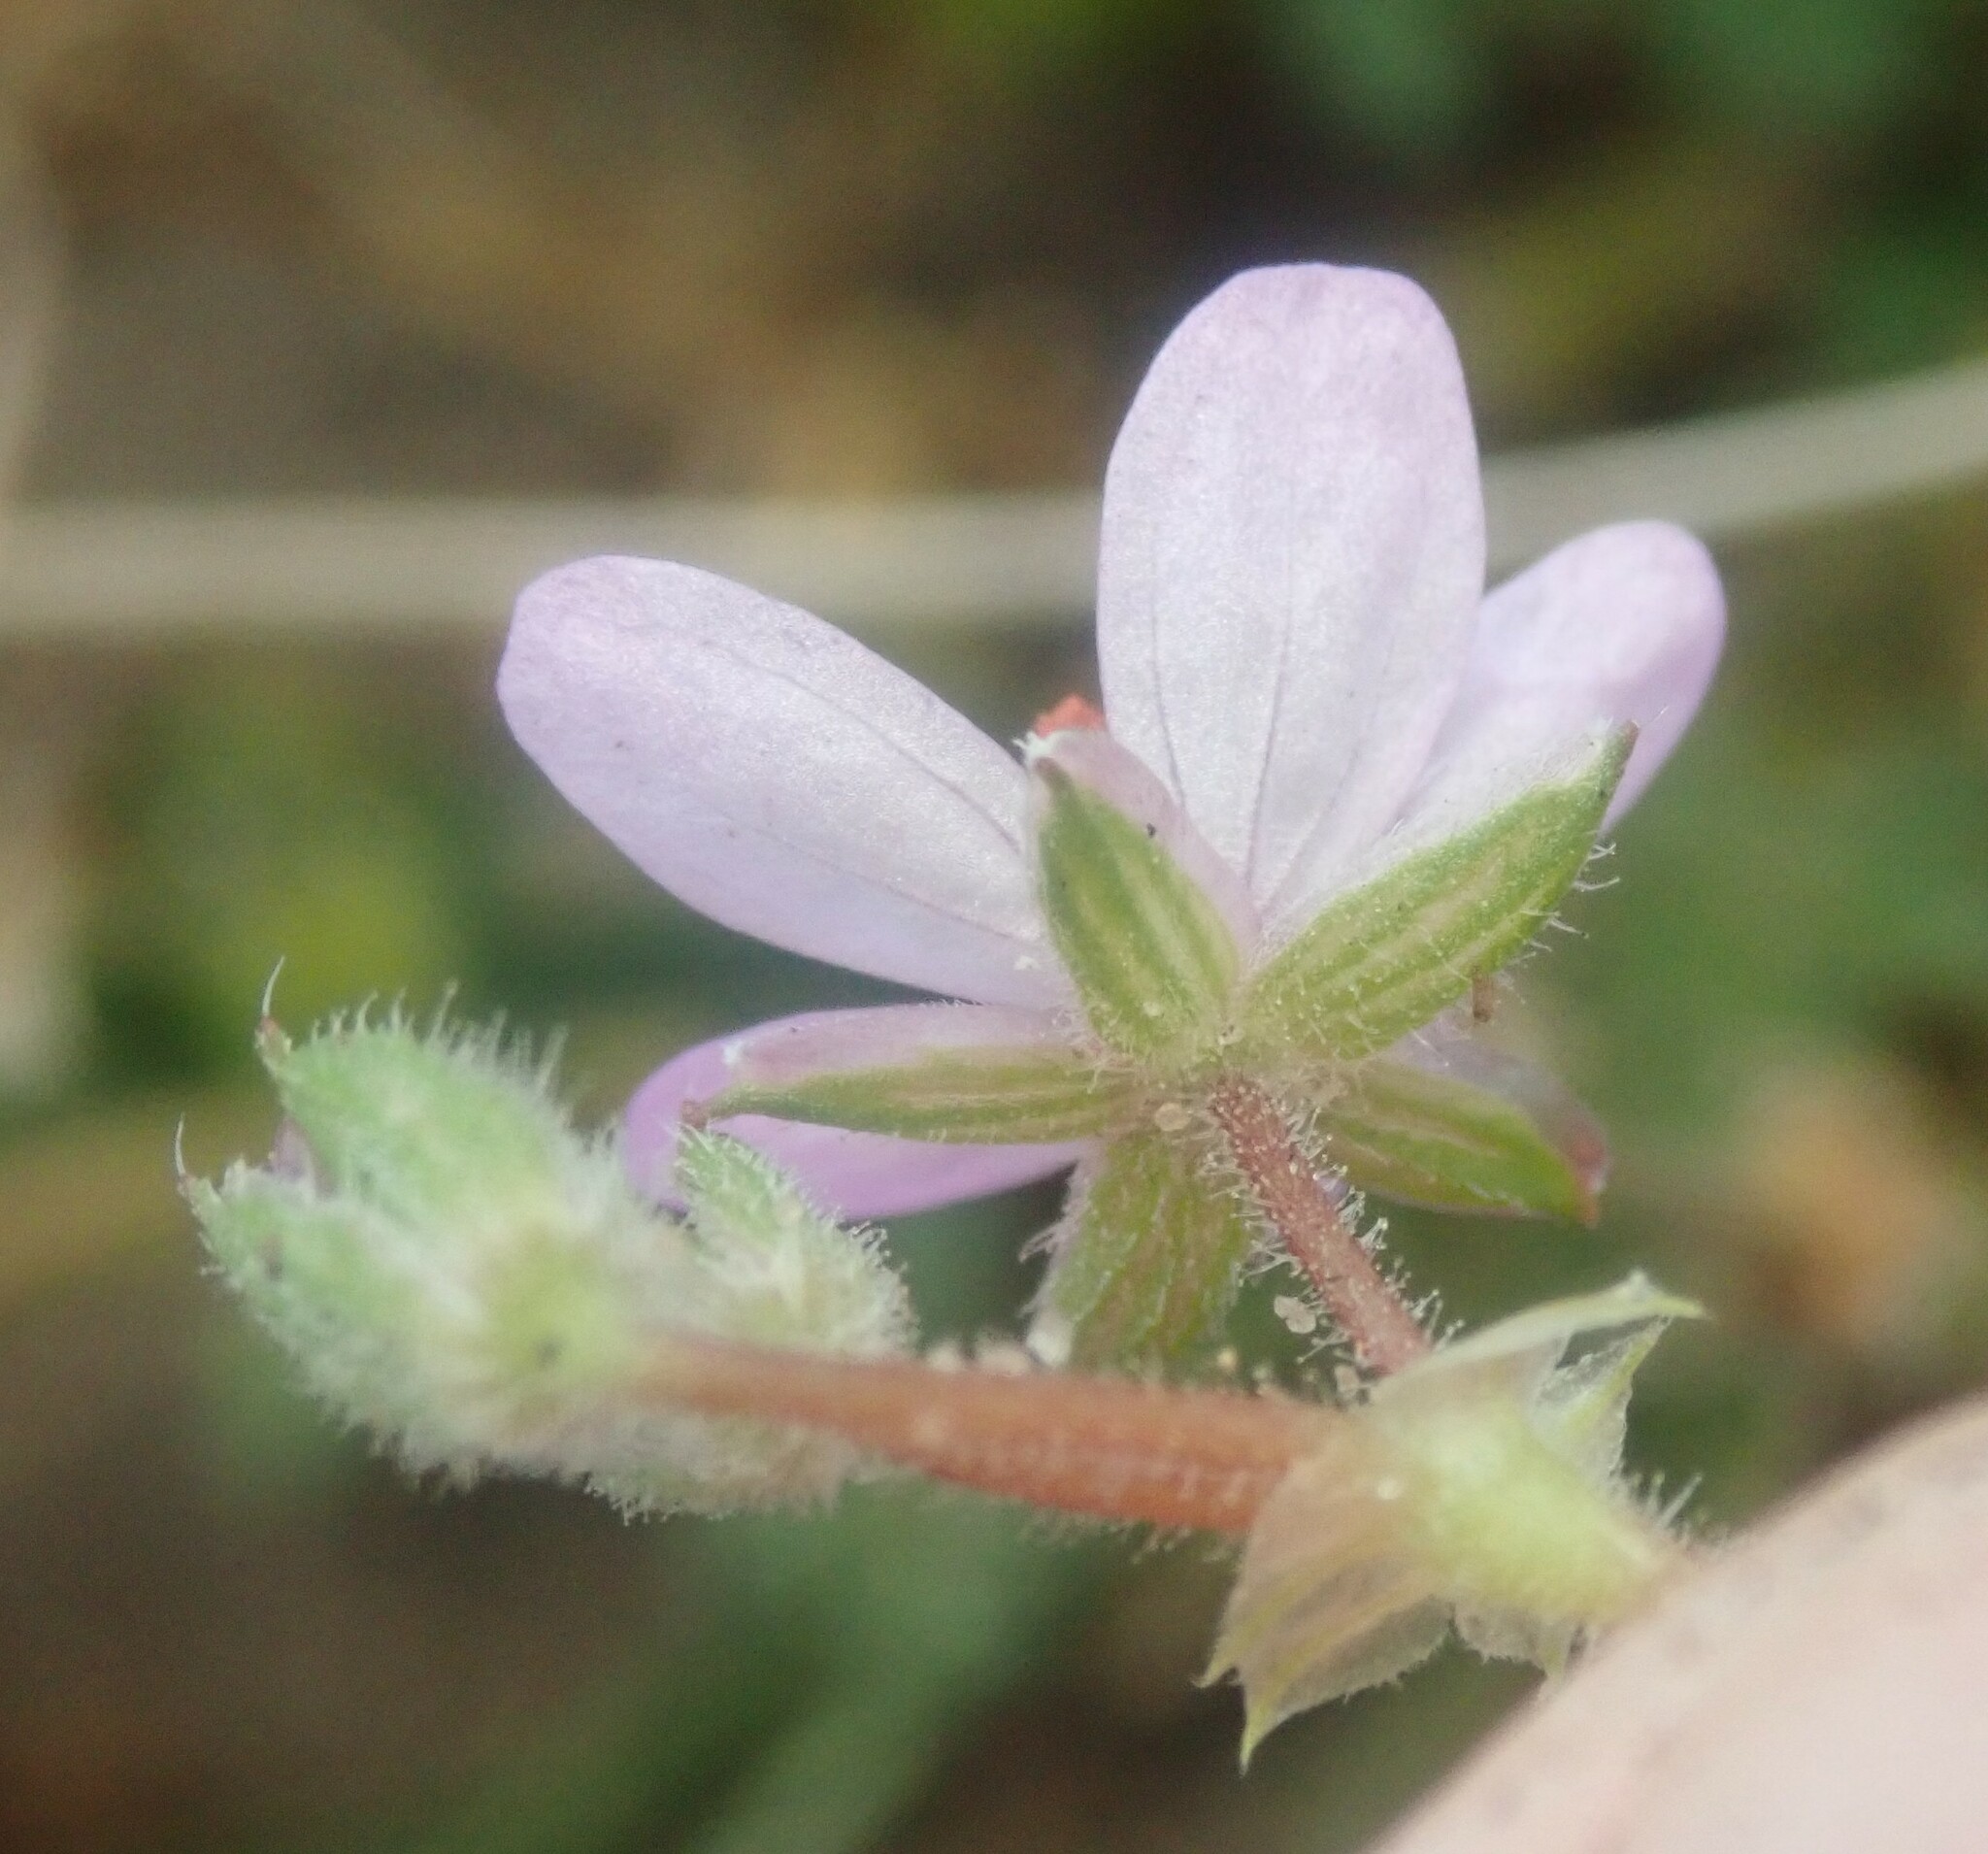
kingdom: Plantae
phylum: Tracheophyta
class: Magnoliopsida
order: Geraniales
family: Geraniaceae
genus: Erodium
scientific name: Erodium cicutarium
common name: Common stork's-bill
